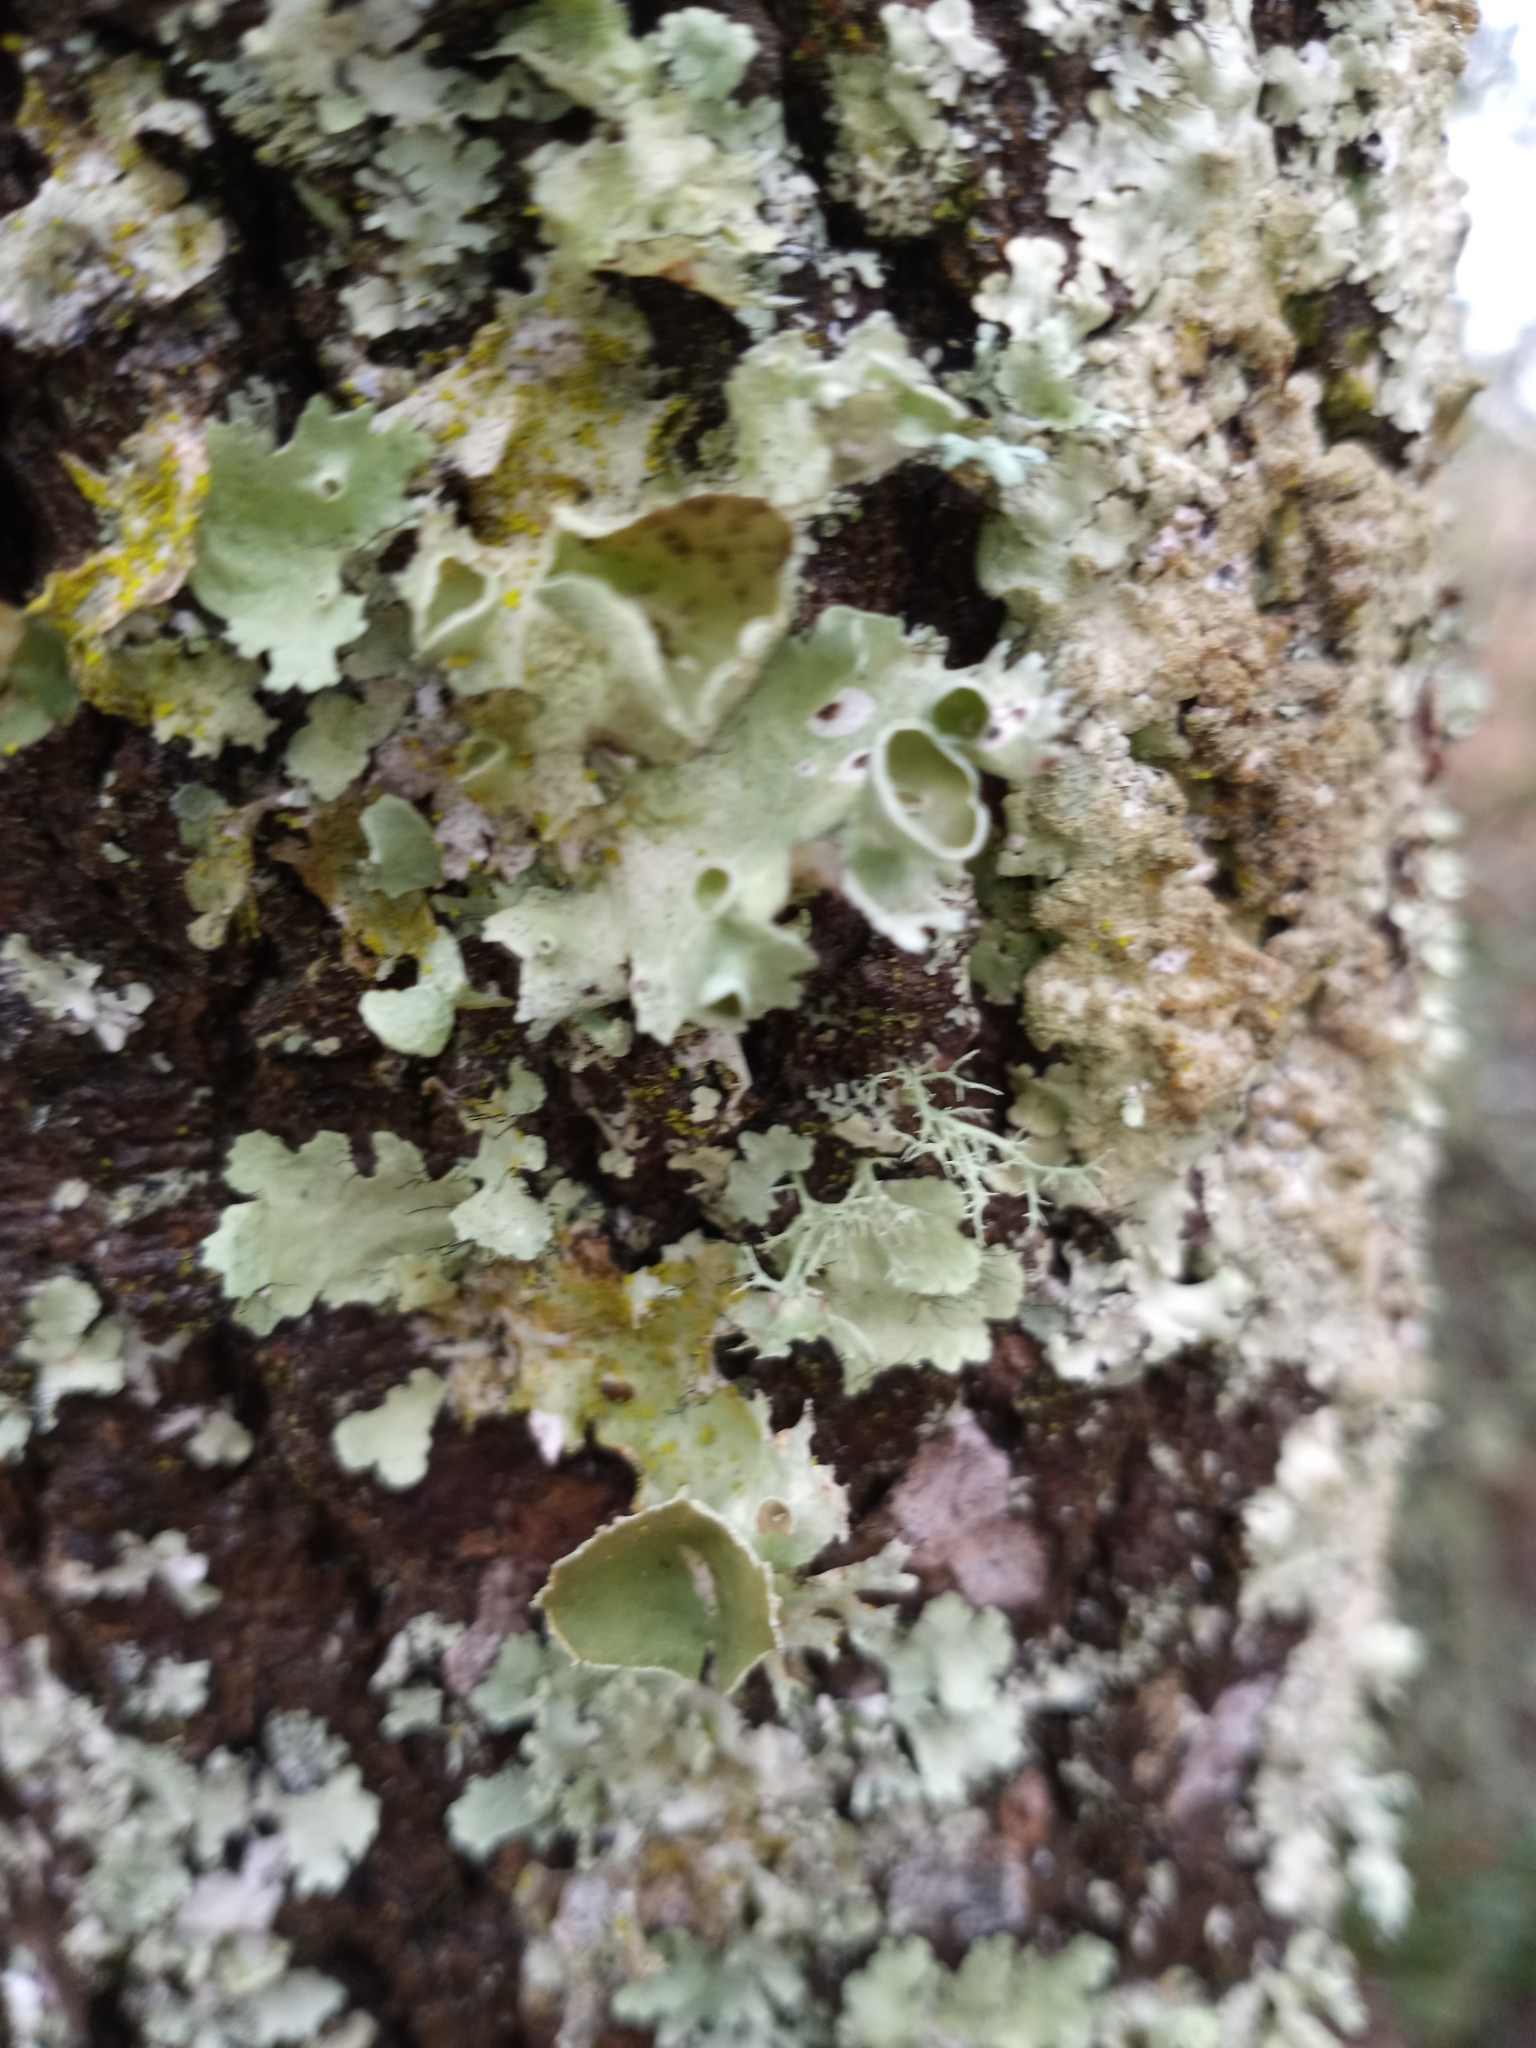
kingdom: Fungi
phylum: Ascomycota
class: Lecanoromycetes
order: Lecanorales
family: Parmeliaceae
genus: Parmotrema
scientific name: Parmotrema subrigidum
